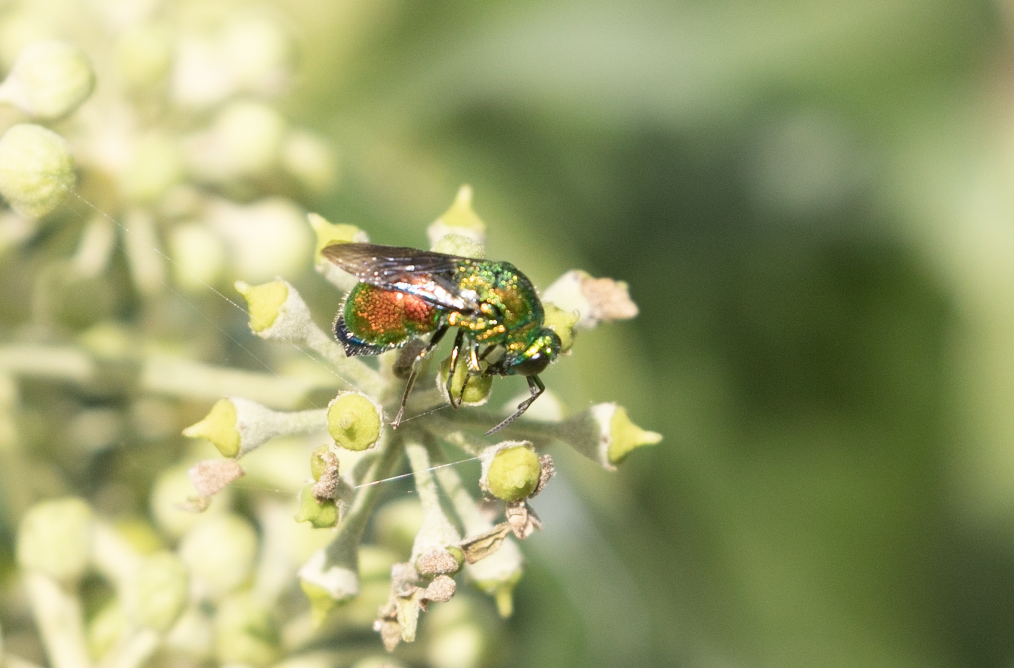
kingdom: Animalia
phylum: Arthropoda
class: Insecta
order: Hymenoptera
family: Chrysididae
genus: Stilbum
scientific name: Stilbum cyanurum
